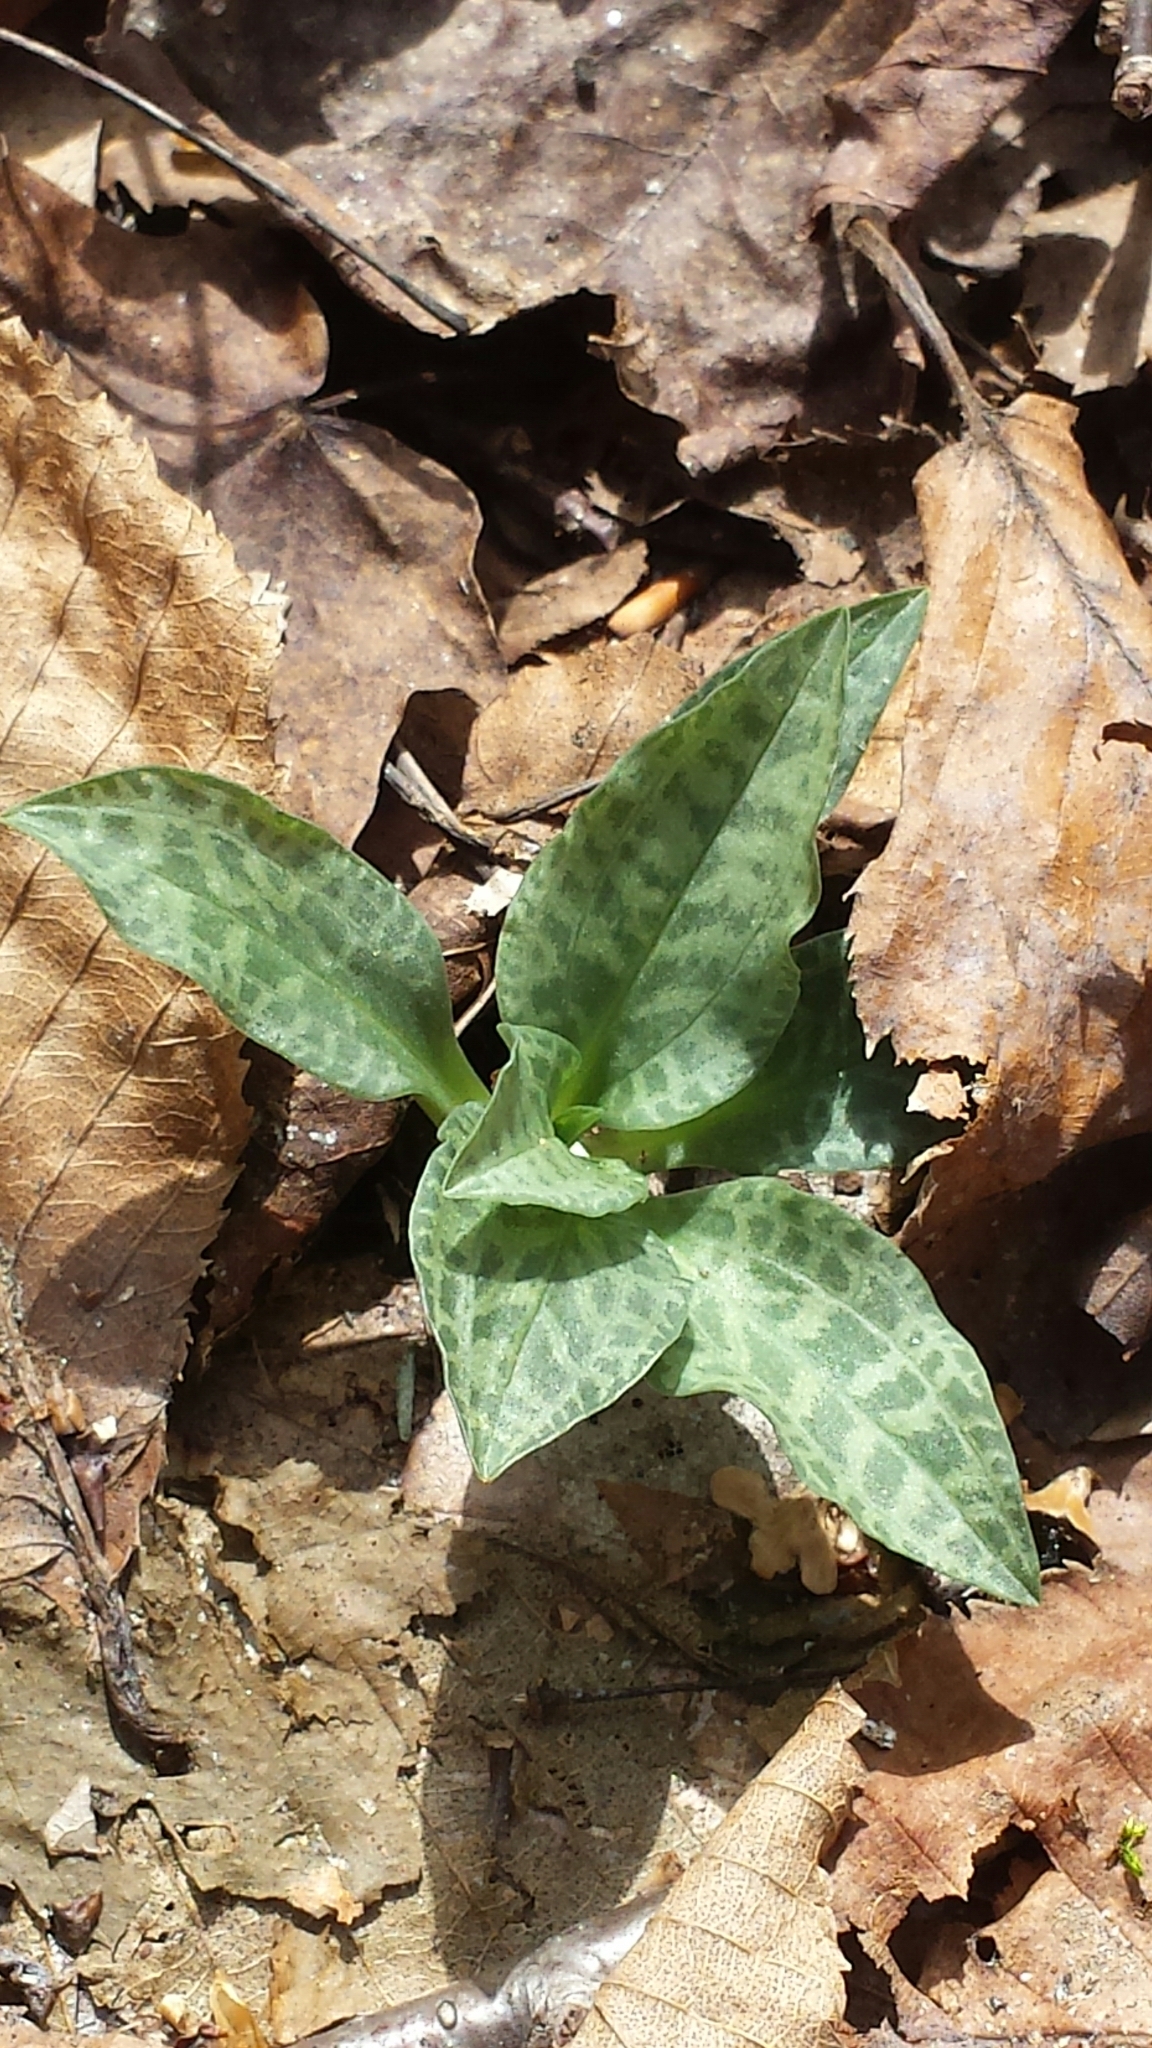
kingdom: Plantae
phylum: Tracheophyta
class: Liliopsida
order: Asparagales
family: Orchidaceae
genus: Goodyera
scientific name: Goodyera tesselata
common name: Checkered rattlesnake-plantain
